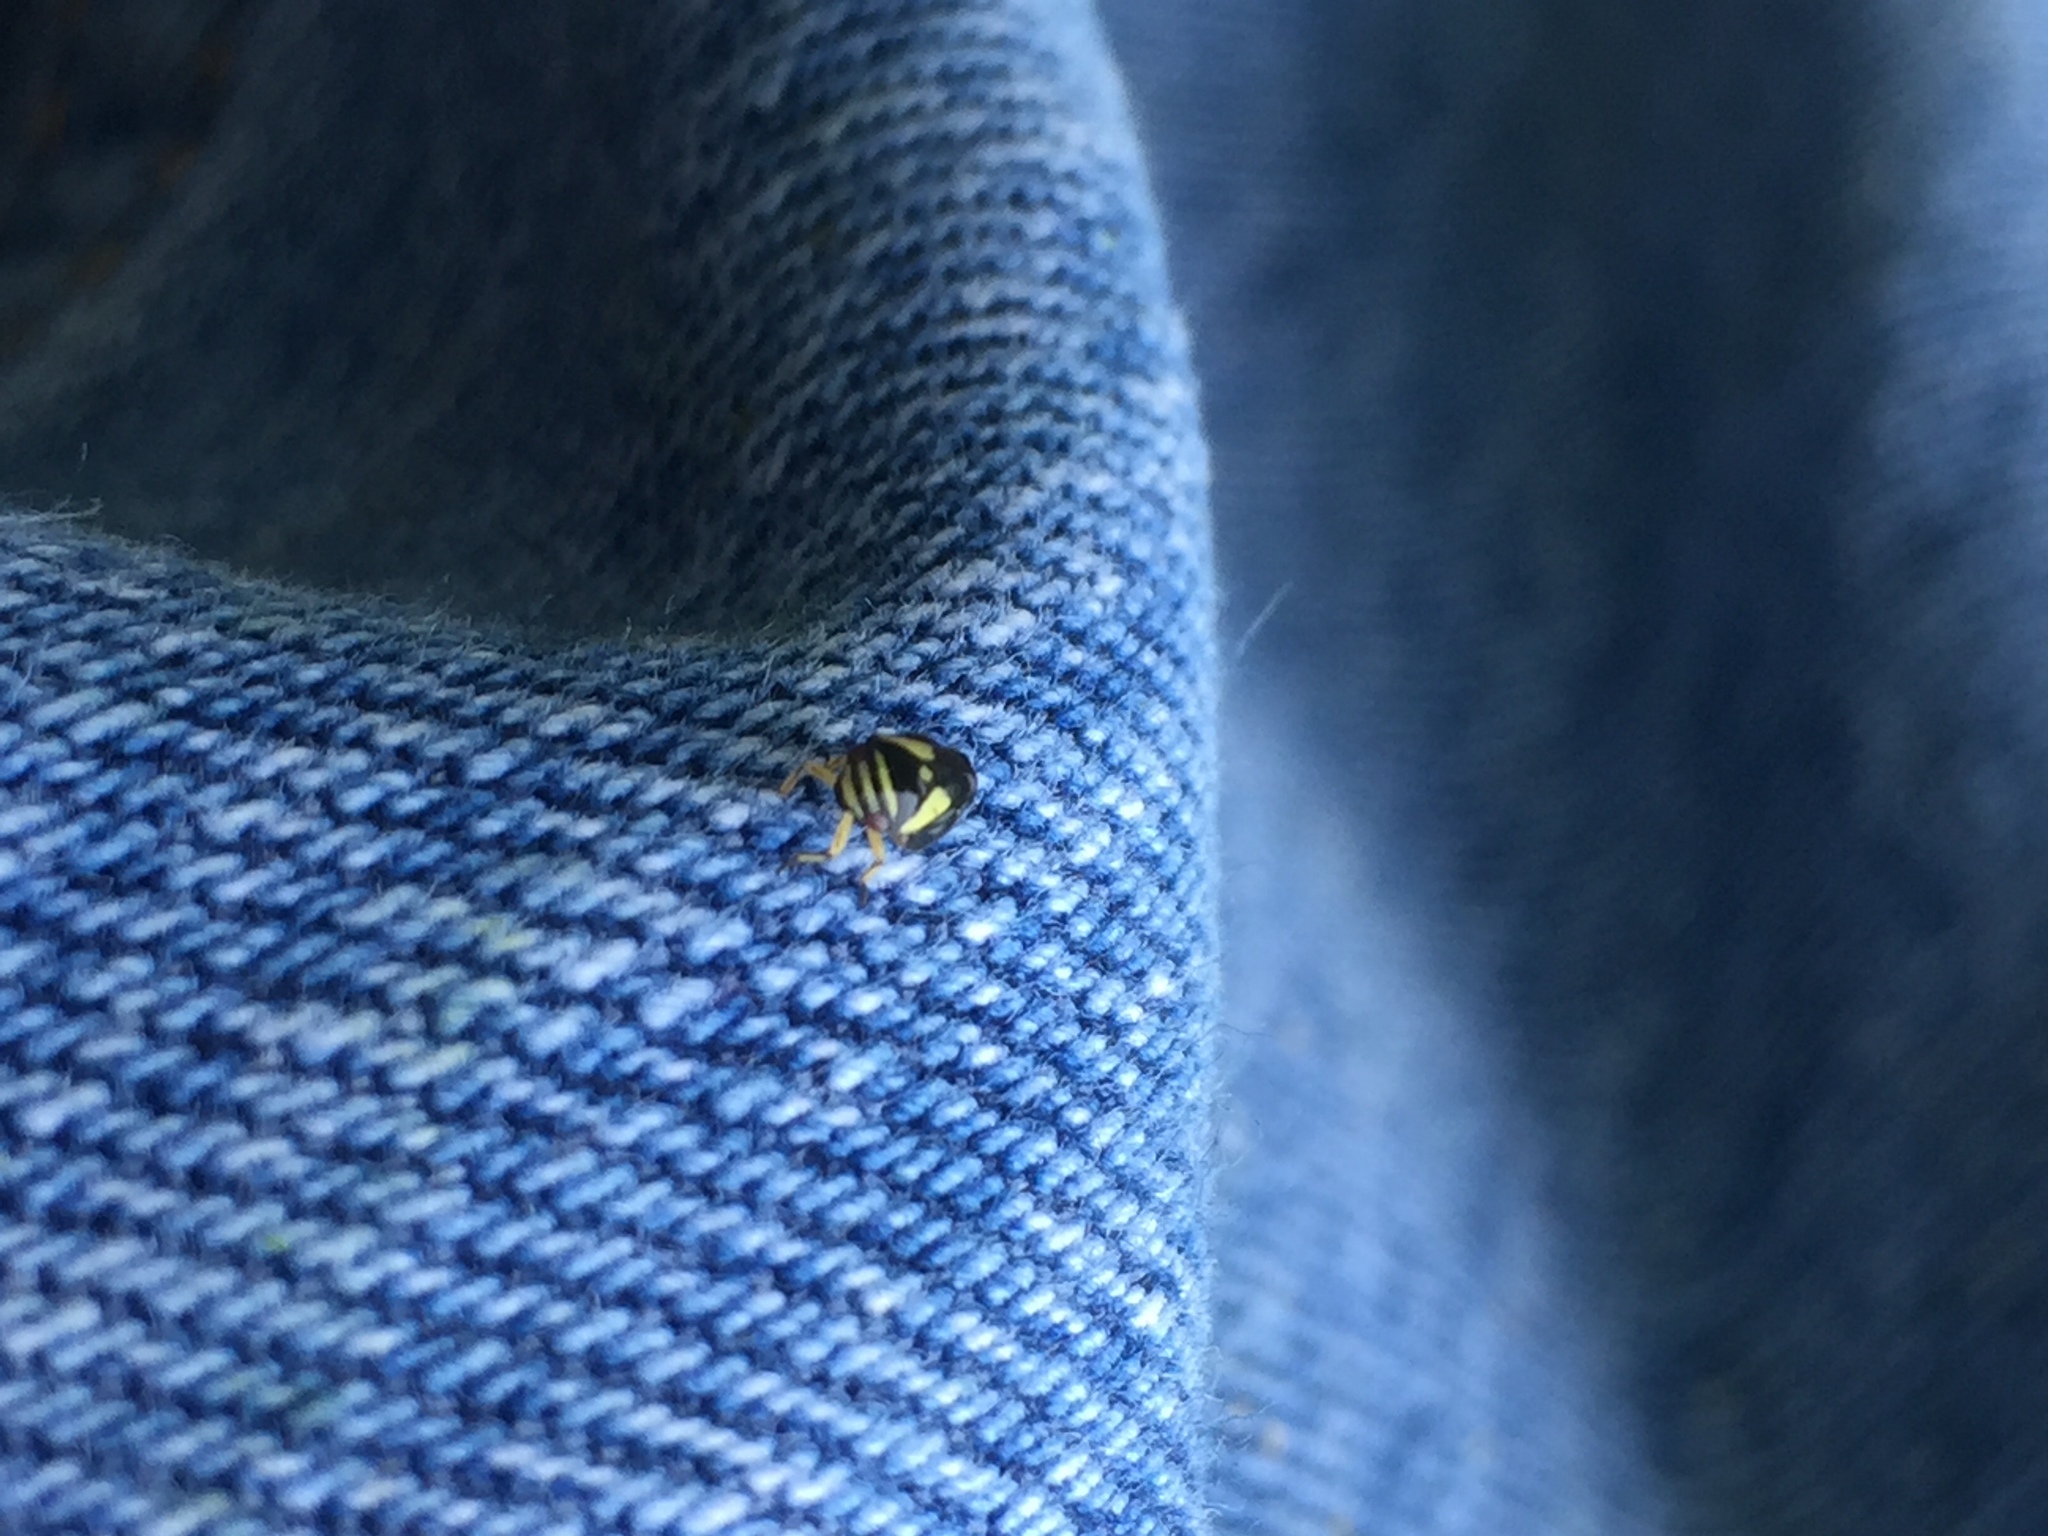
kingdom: Animalia
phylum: Arthropoda
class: Insecta
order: Hemiptera
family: Clastopteridae
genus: Clastoptera
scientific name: Clastoptera proteus
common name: Dogwood spittlebug
